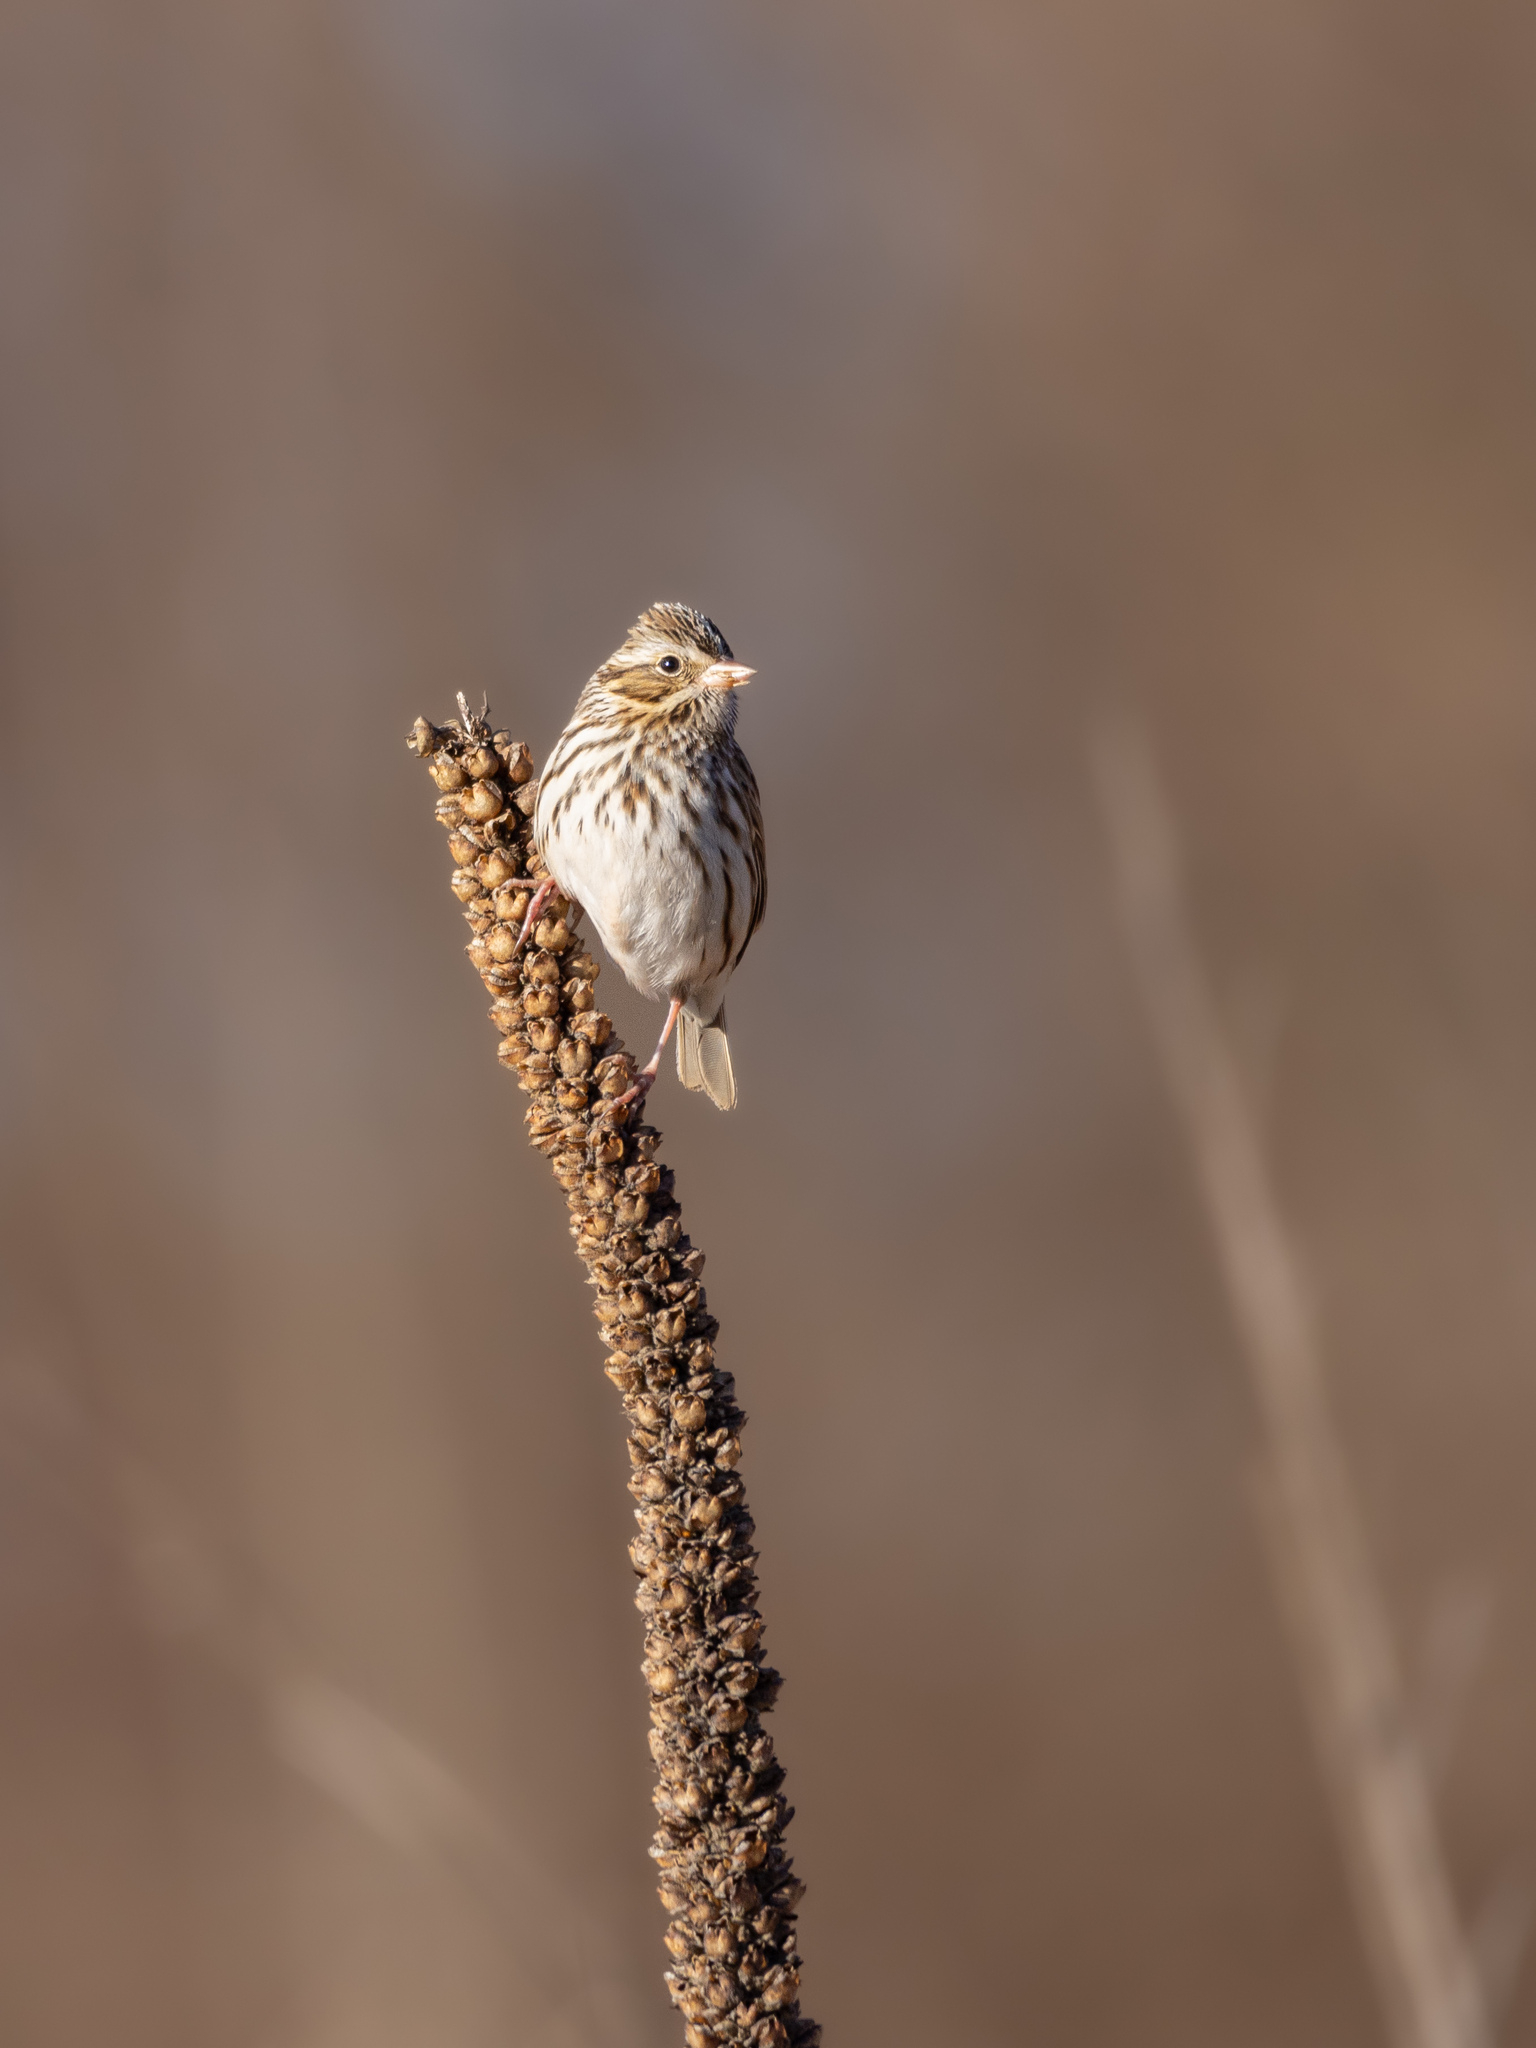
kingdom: Animalia
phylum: Chordata
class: Aves
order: Passeriformes
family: Passerellidae
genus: Passerculus
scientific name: Passerculus sandwichensis
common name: Savannah sparrow
